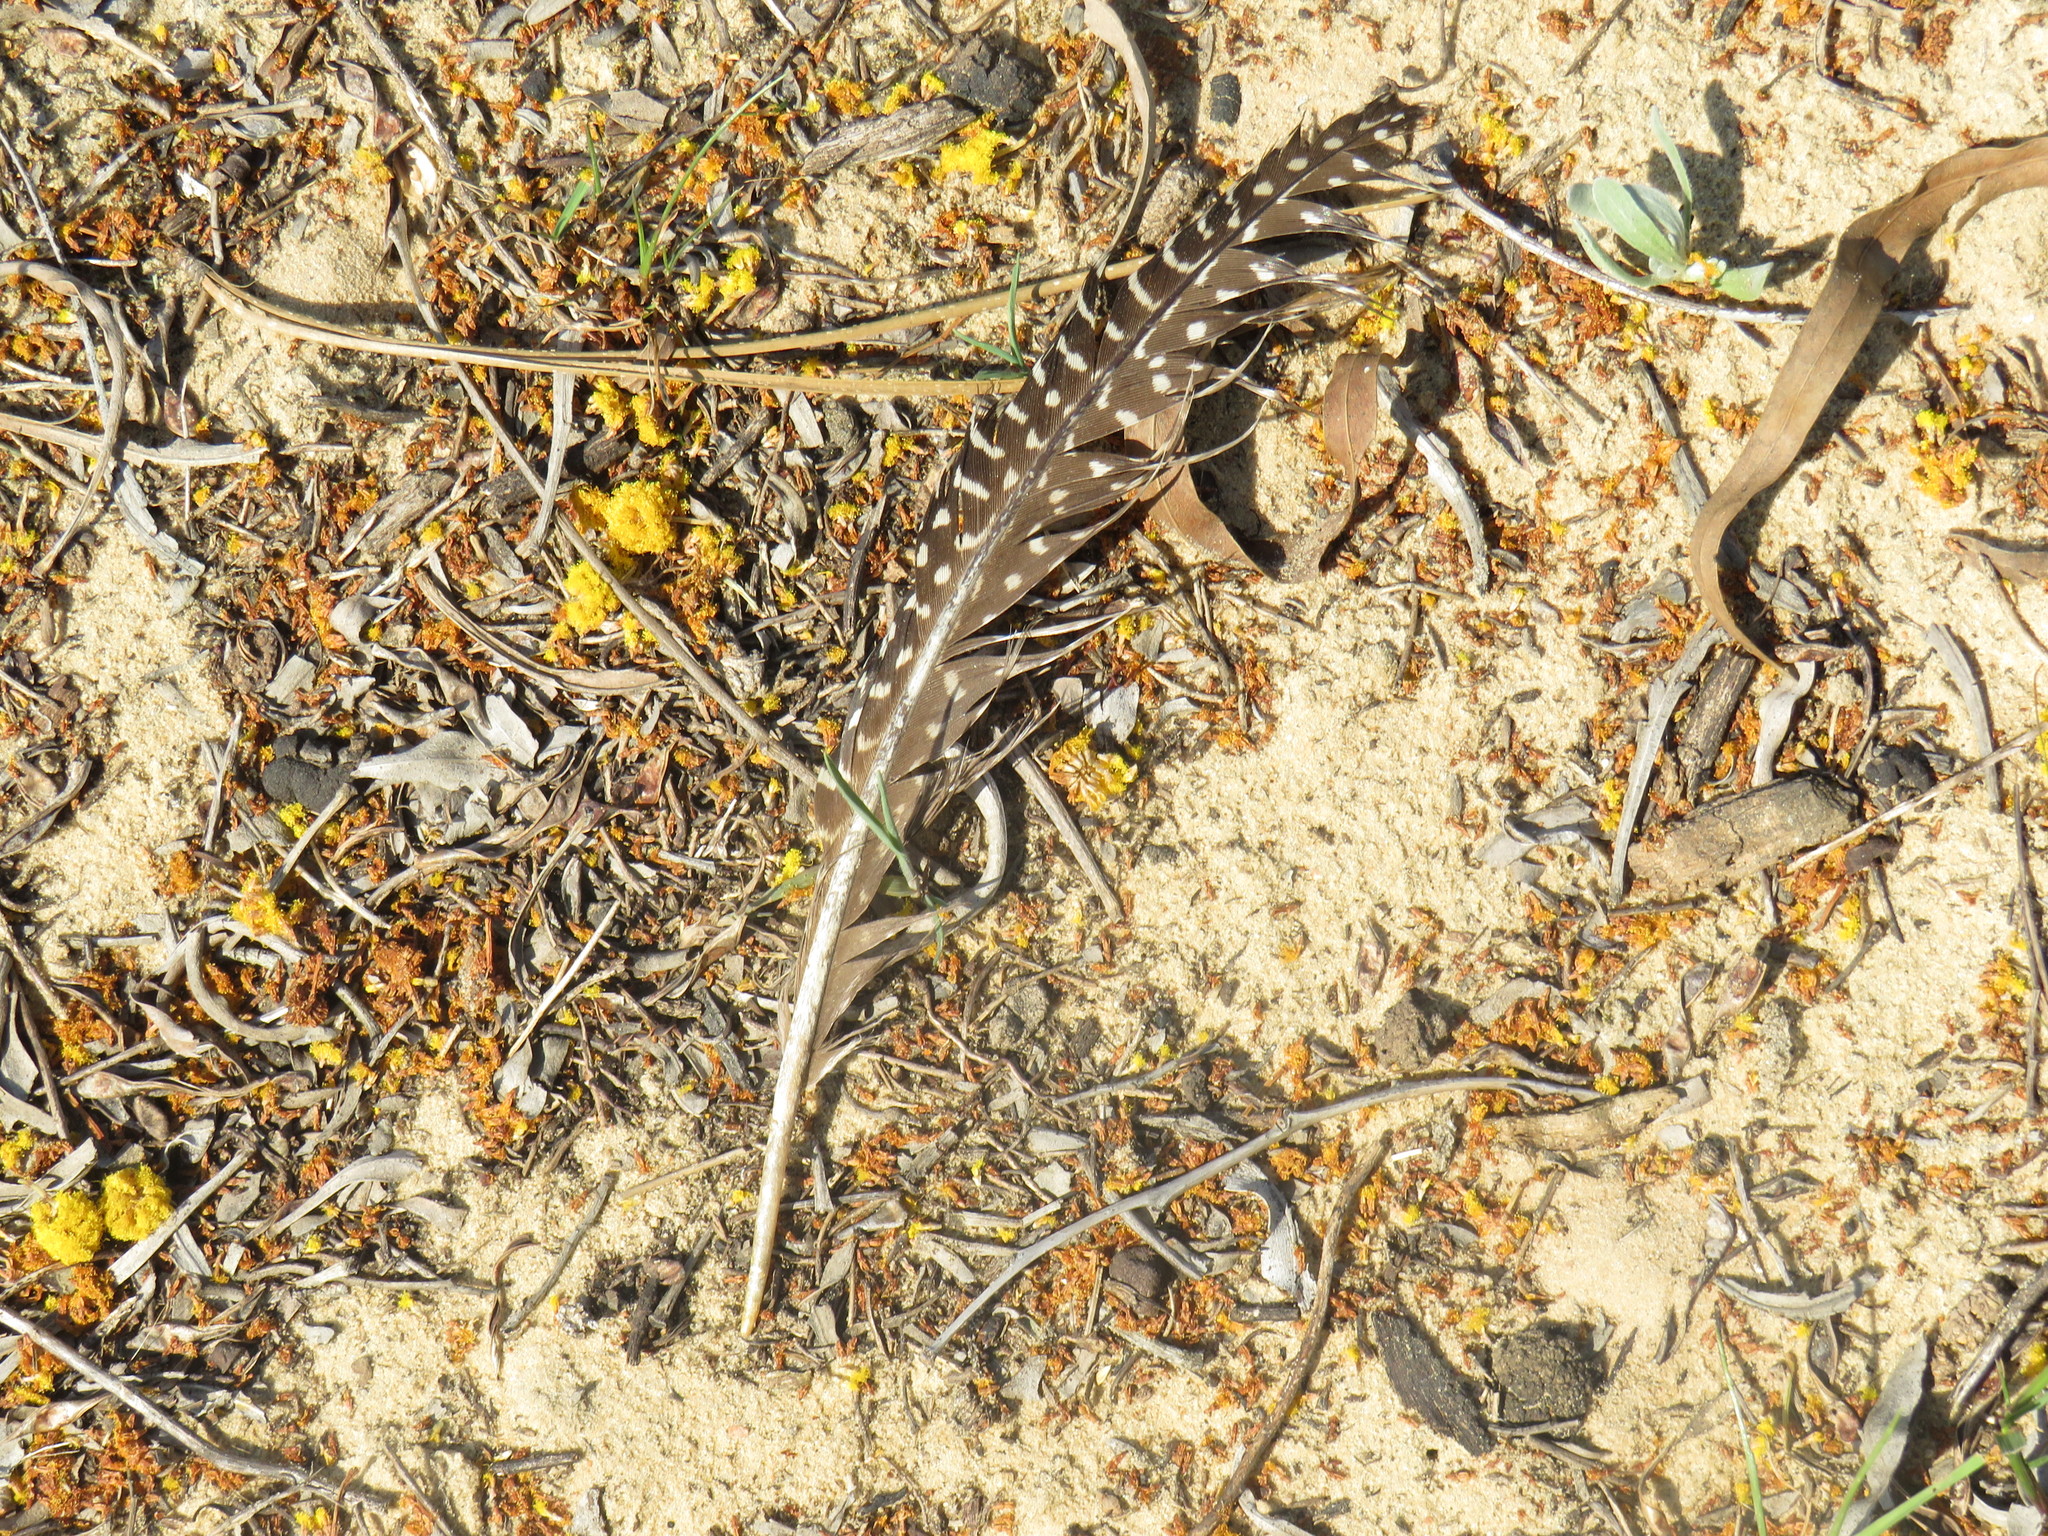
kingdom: Animalia
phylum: Chordata
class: Aves
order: Galliformes
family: Numididae
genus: Numida
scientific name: Numida meleagris
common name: Helmeted guineafowl
